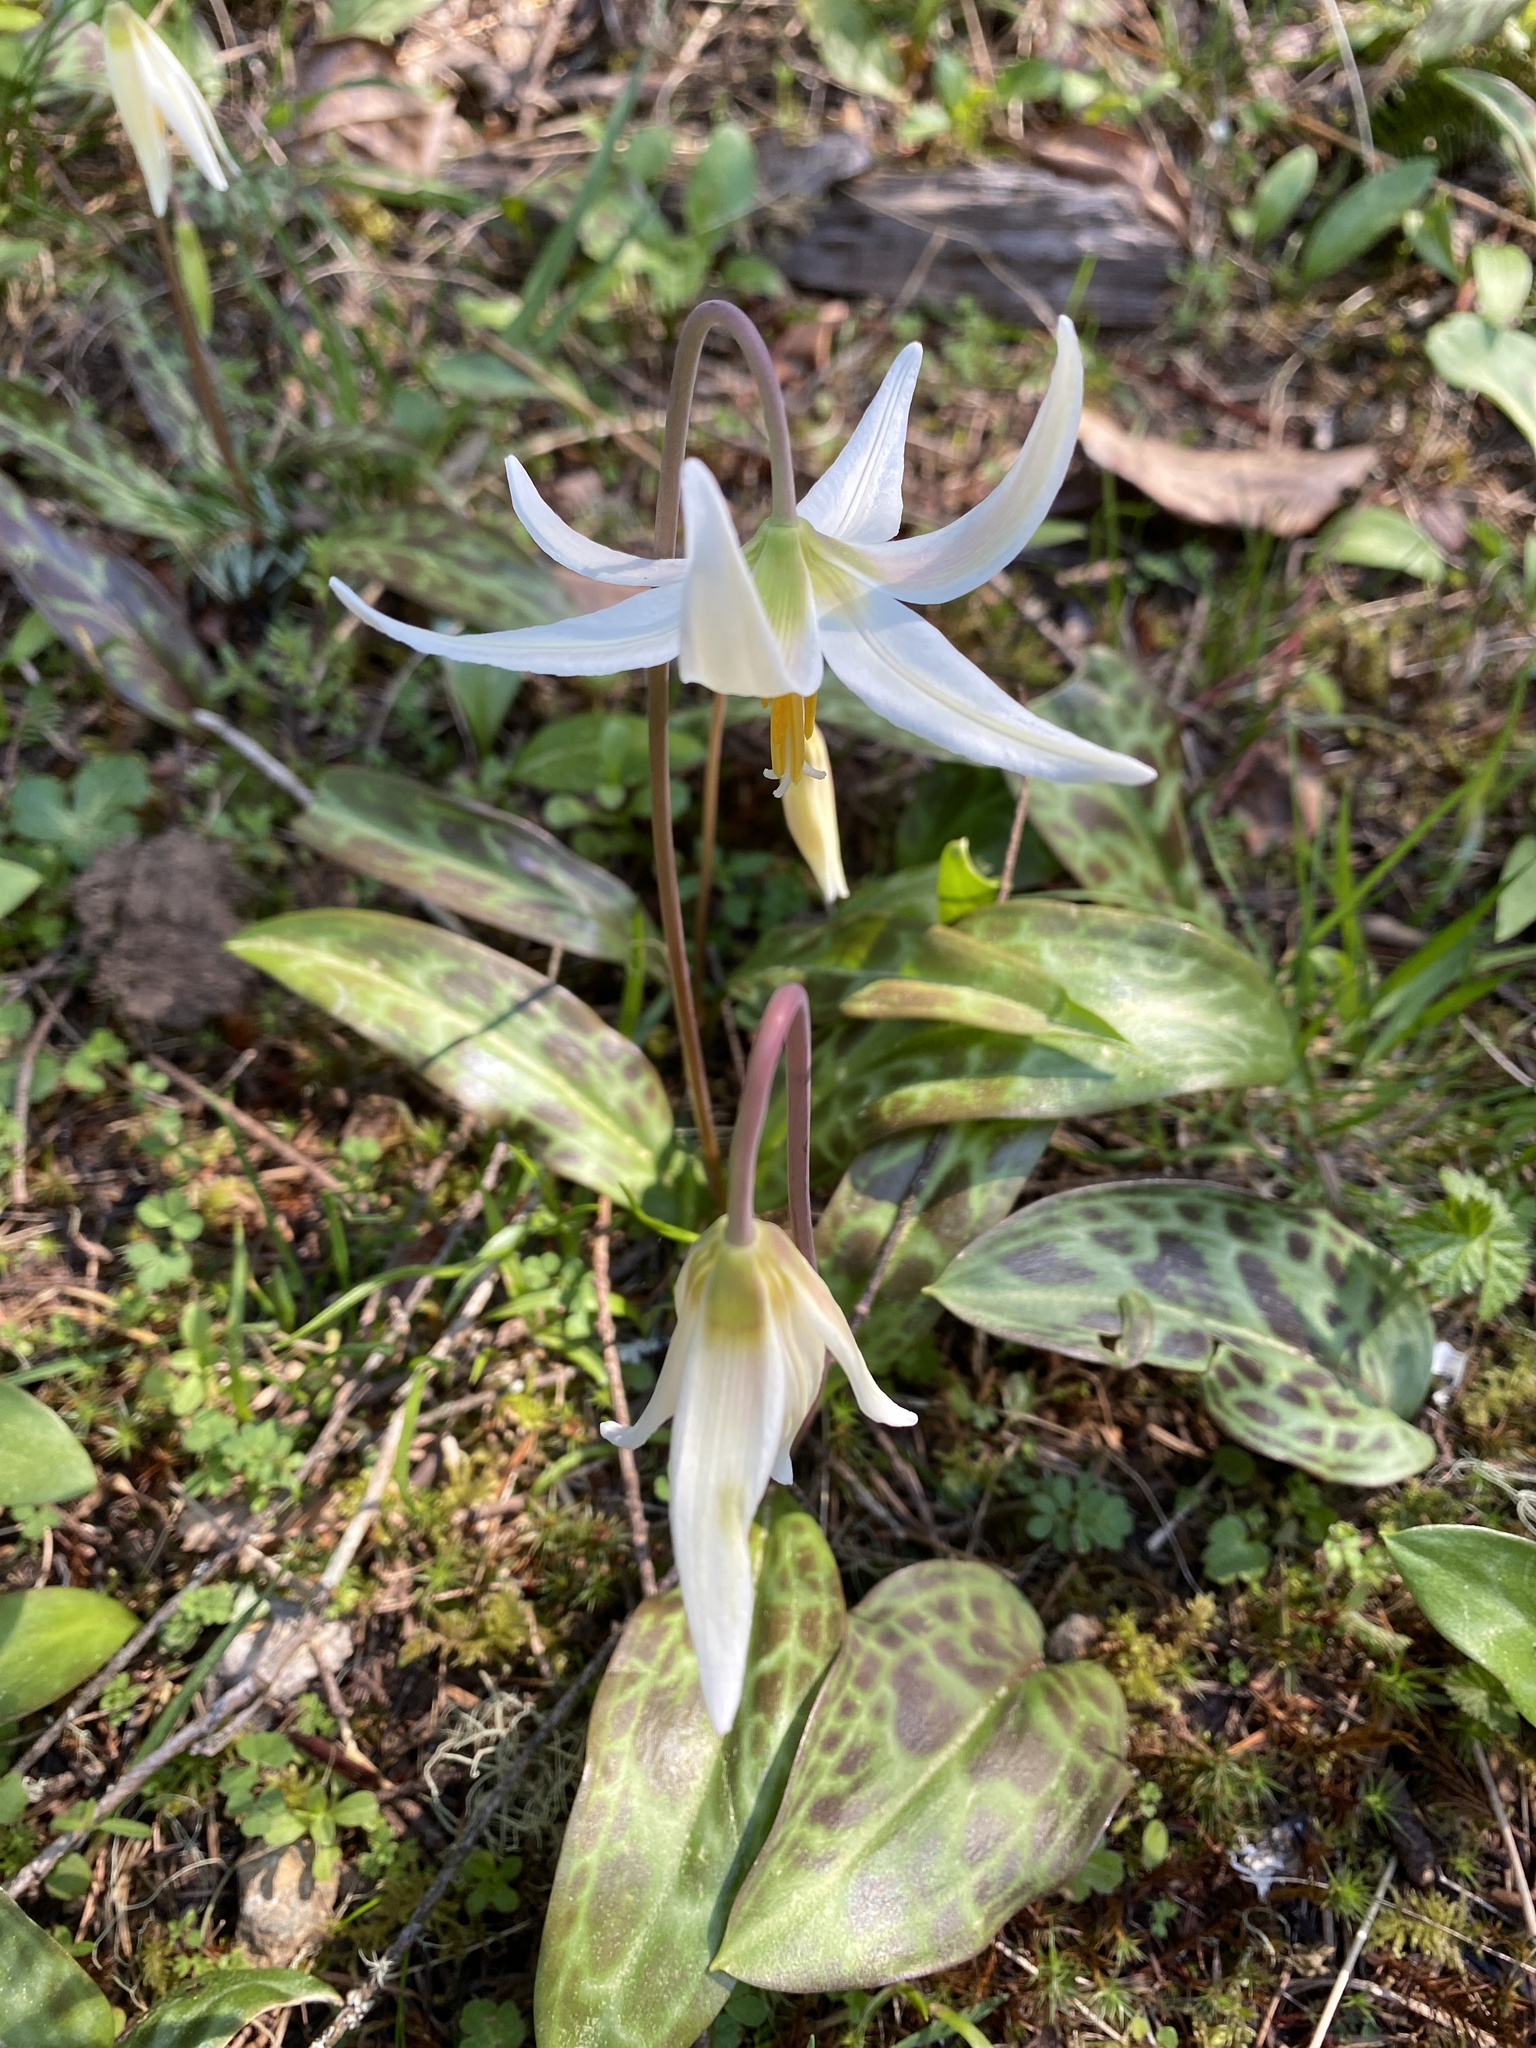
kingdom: Plantae
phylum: Tracheophyta
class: Liliopsida
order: Liliales
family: Liliaceae
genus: Erythronium
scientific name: Erythronium oregonum
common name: Giant adder's-tongue
